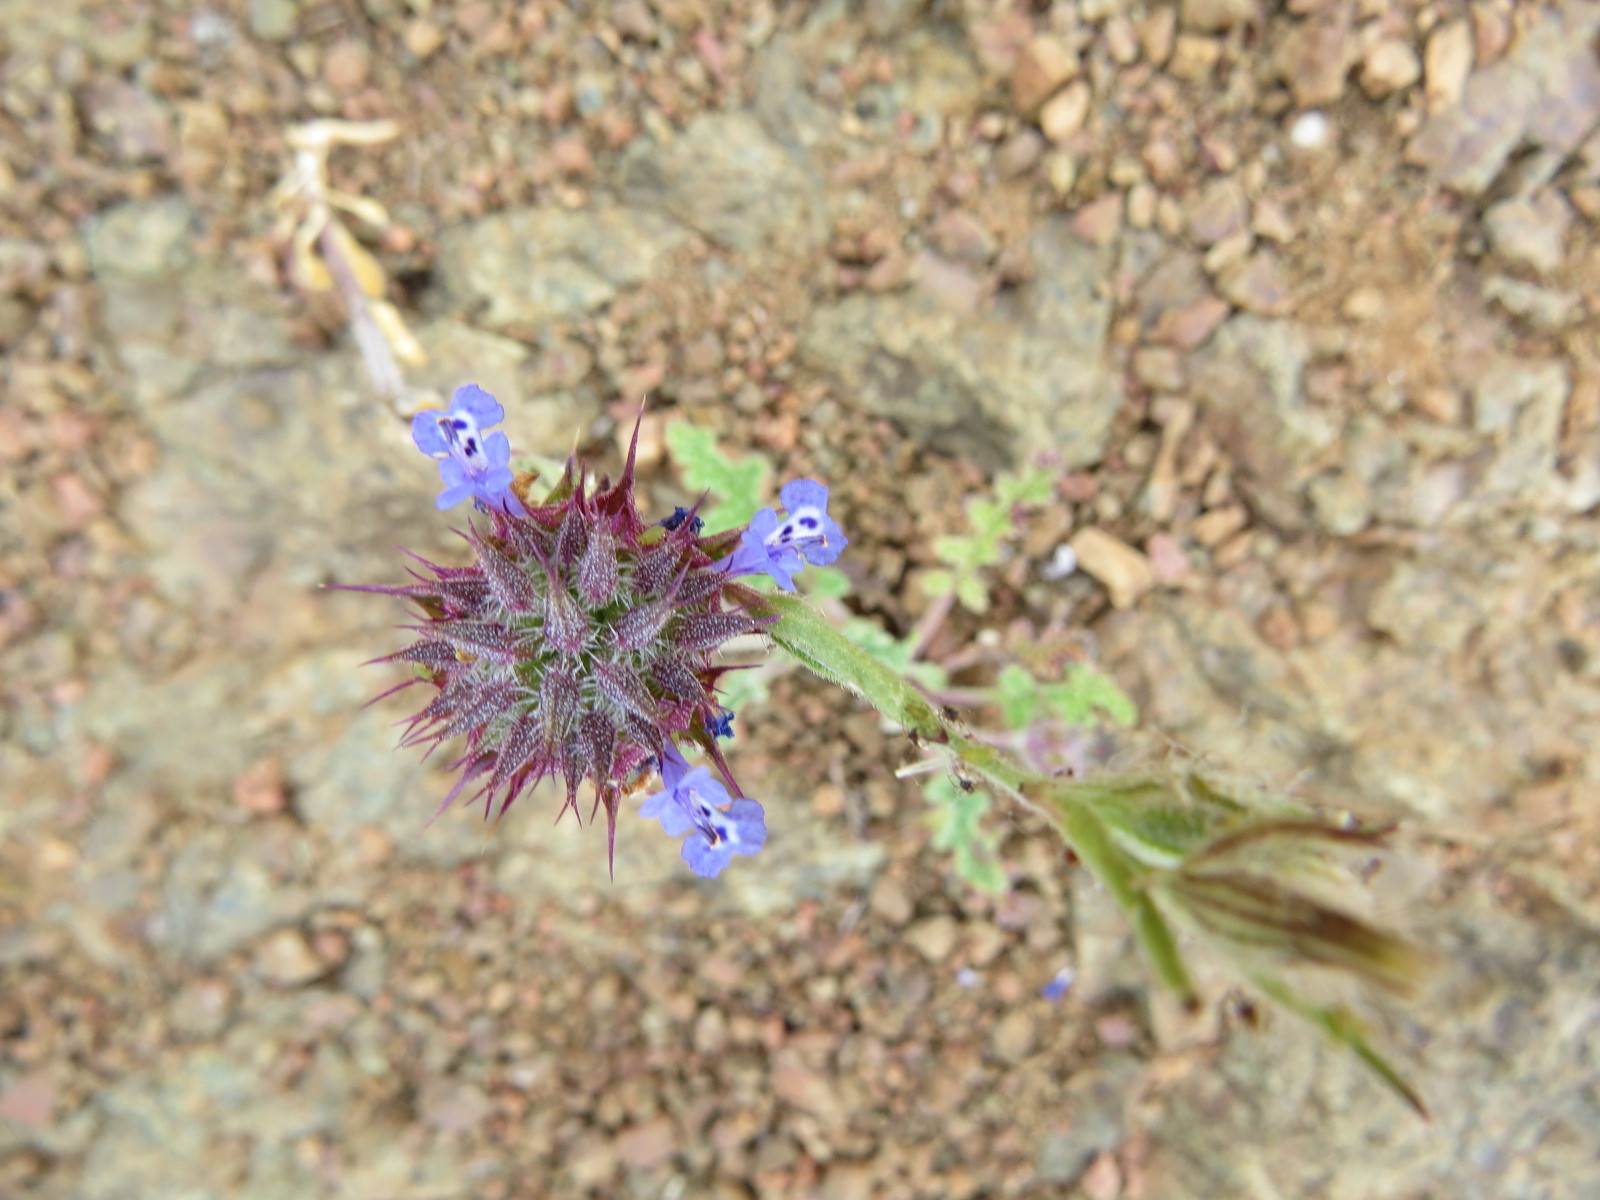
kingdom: Plantae
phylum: Tracheophyta
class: Magnoliopsida
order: Lamiales
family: Lamiaceae
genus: Salvia
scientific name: Salvia columbariae
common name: Chia
